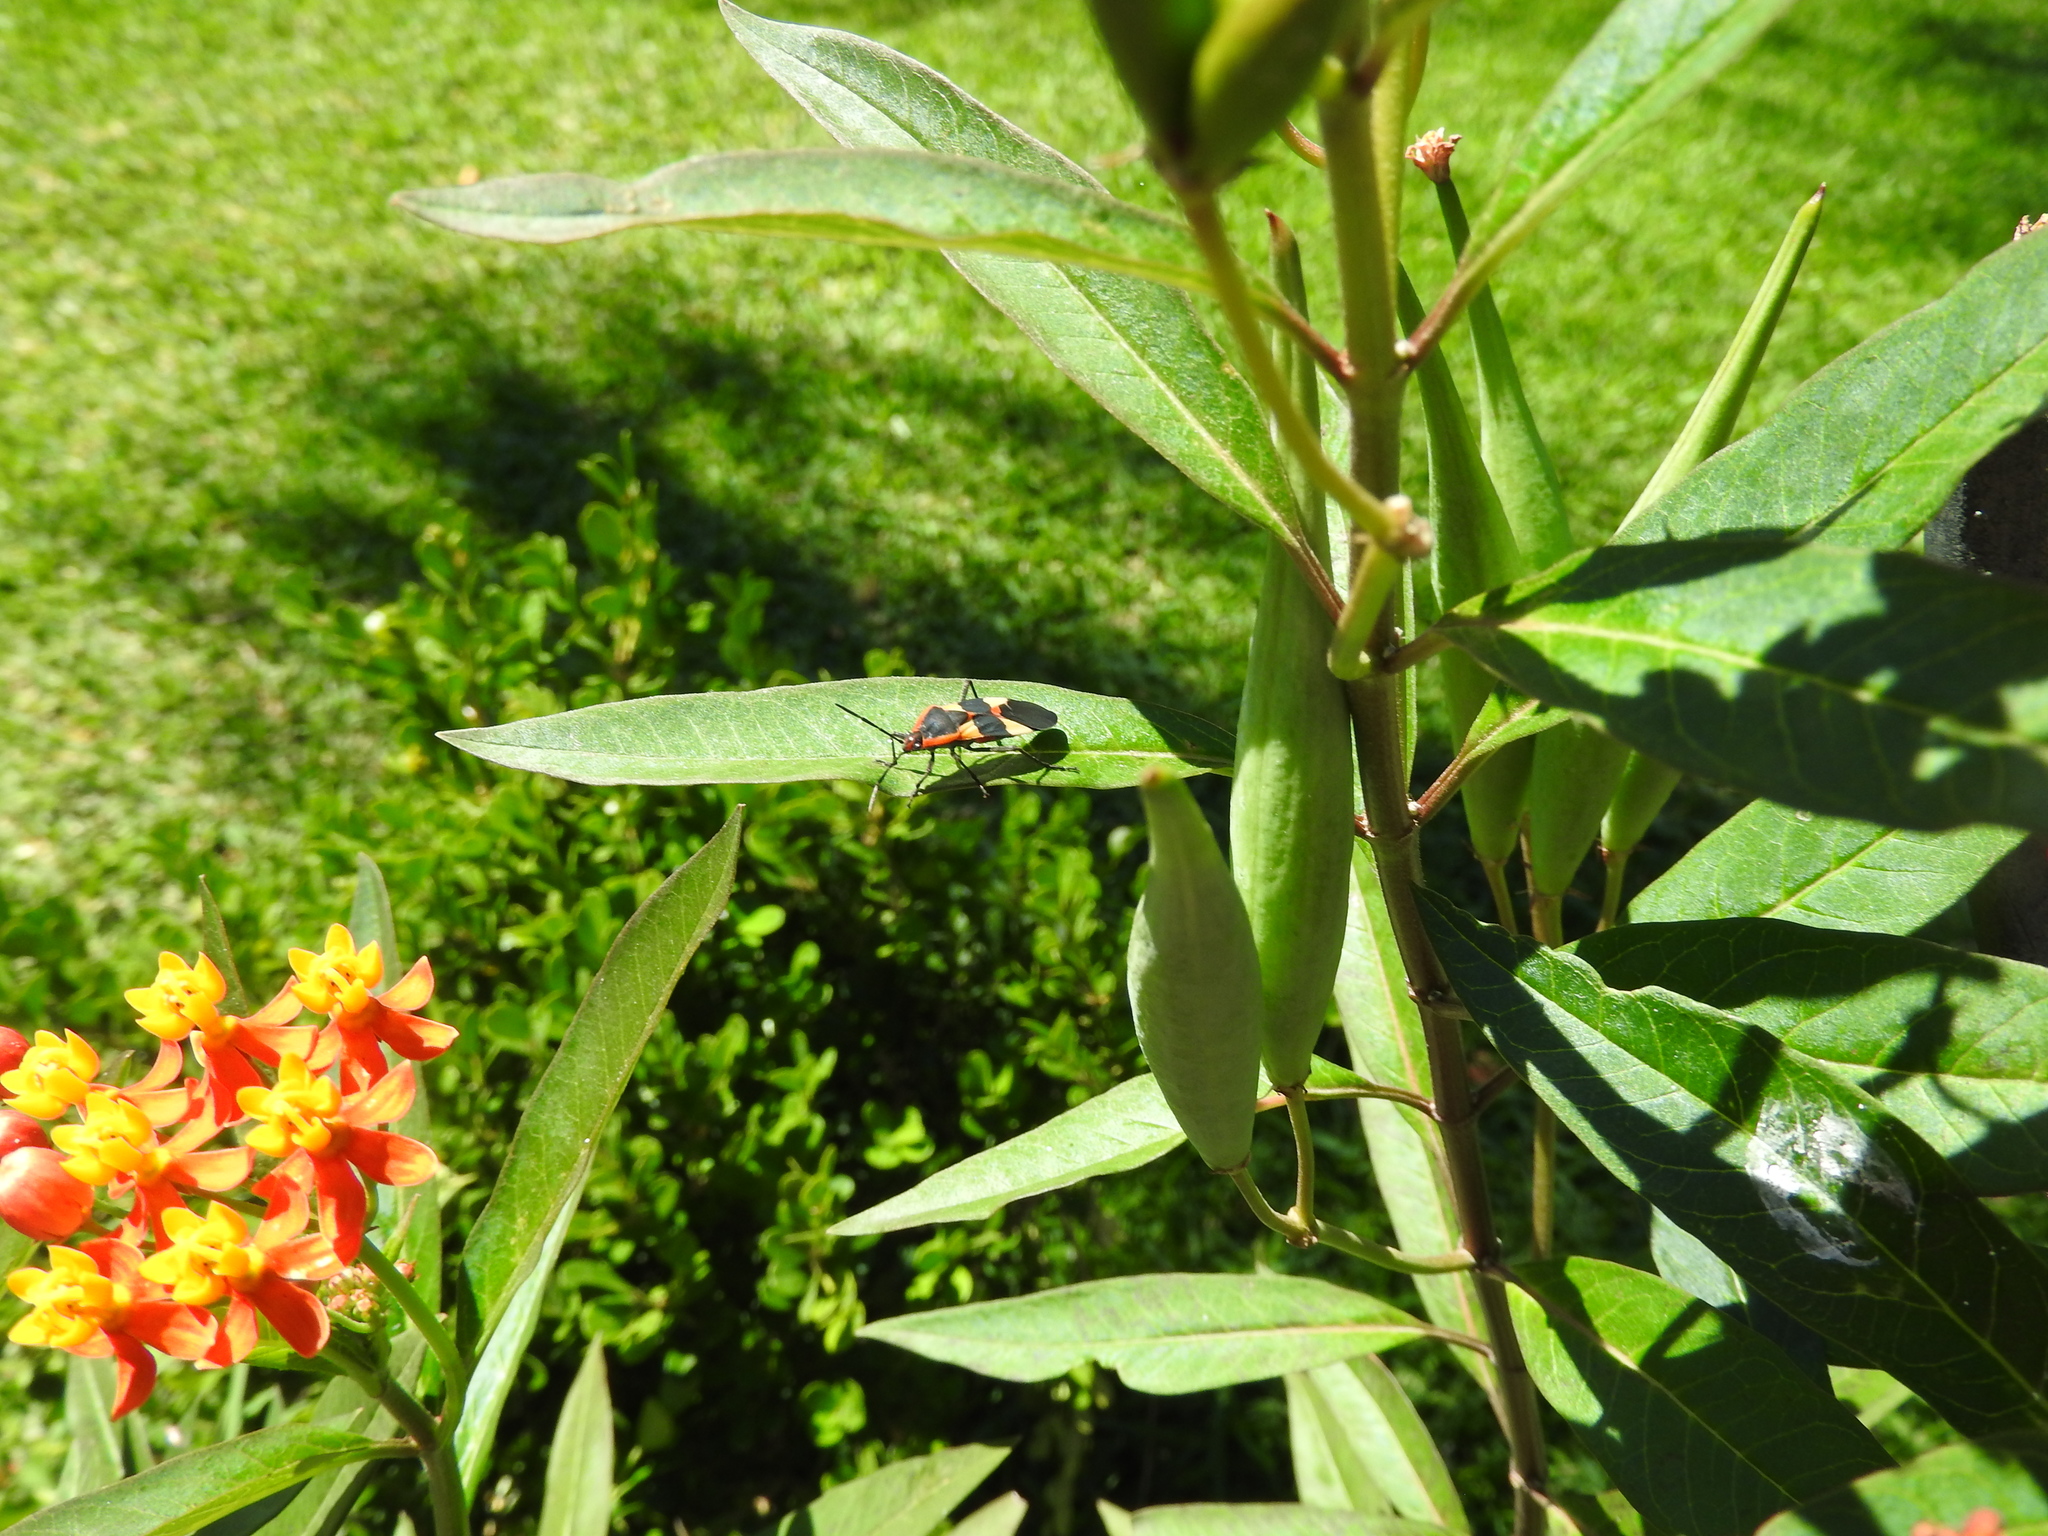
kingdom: Animalia
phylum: Arthropoda
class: Insecta
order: Hemiptera
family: Lygaeidae
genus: Oncopeltus
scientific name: Oncopeltus fasciatus
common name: Large milkweed bug
